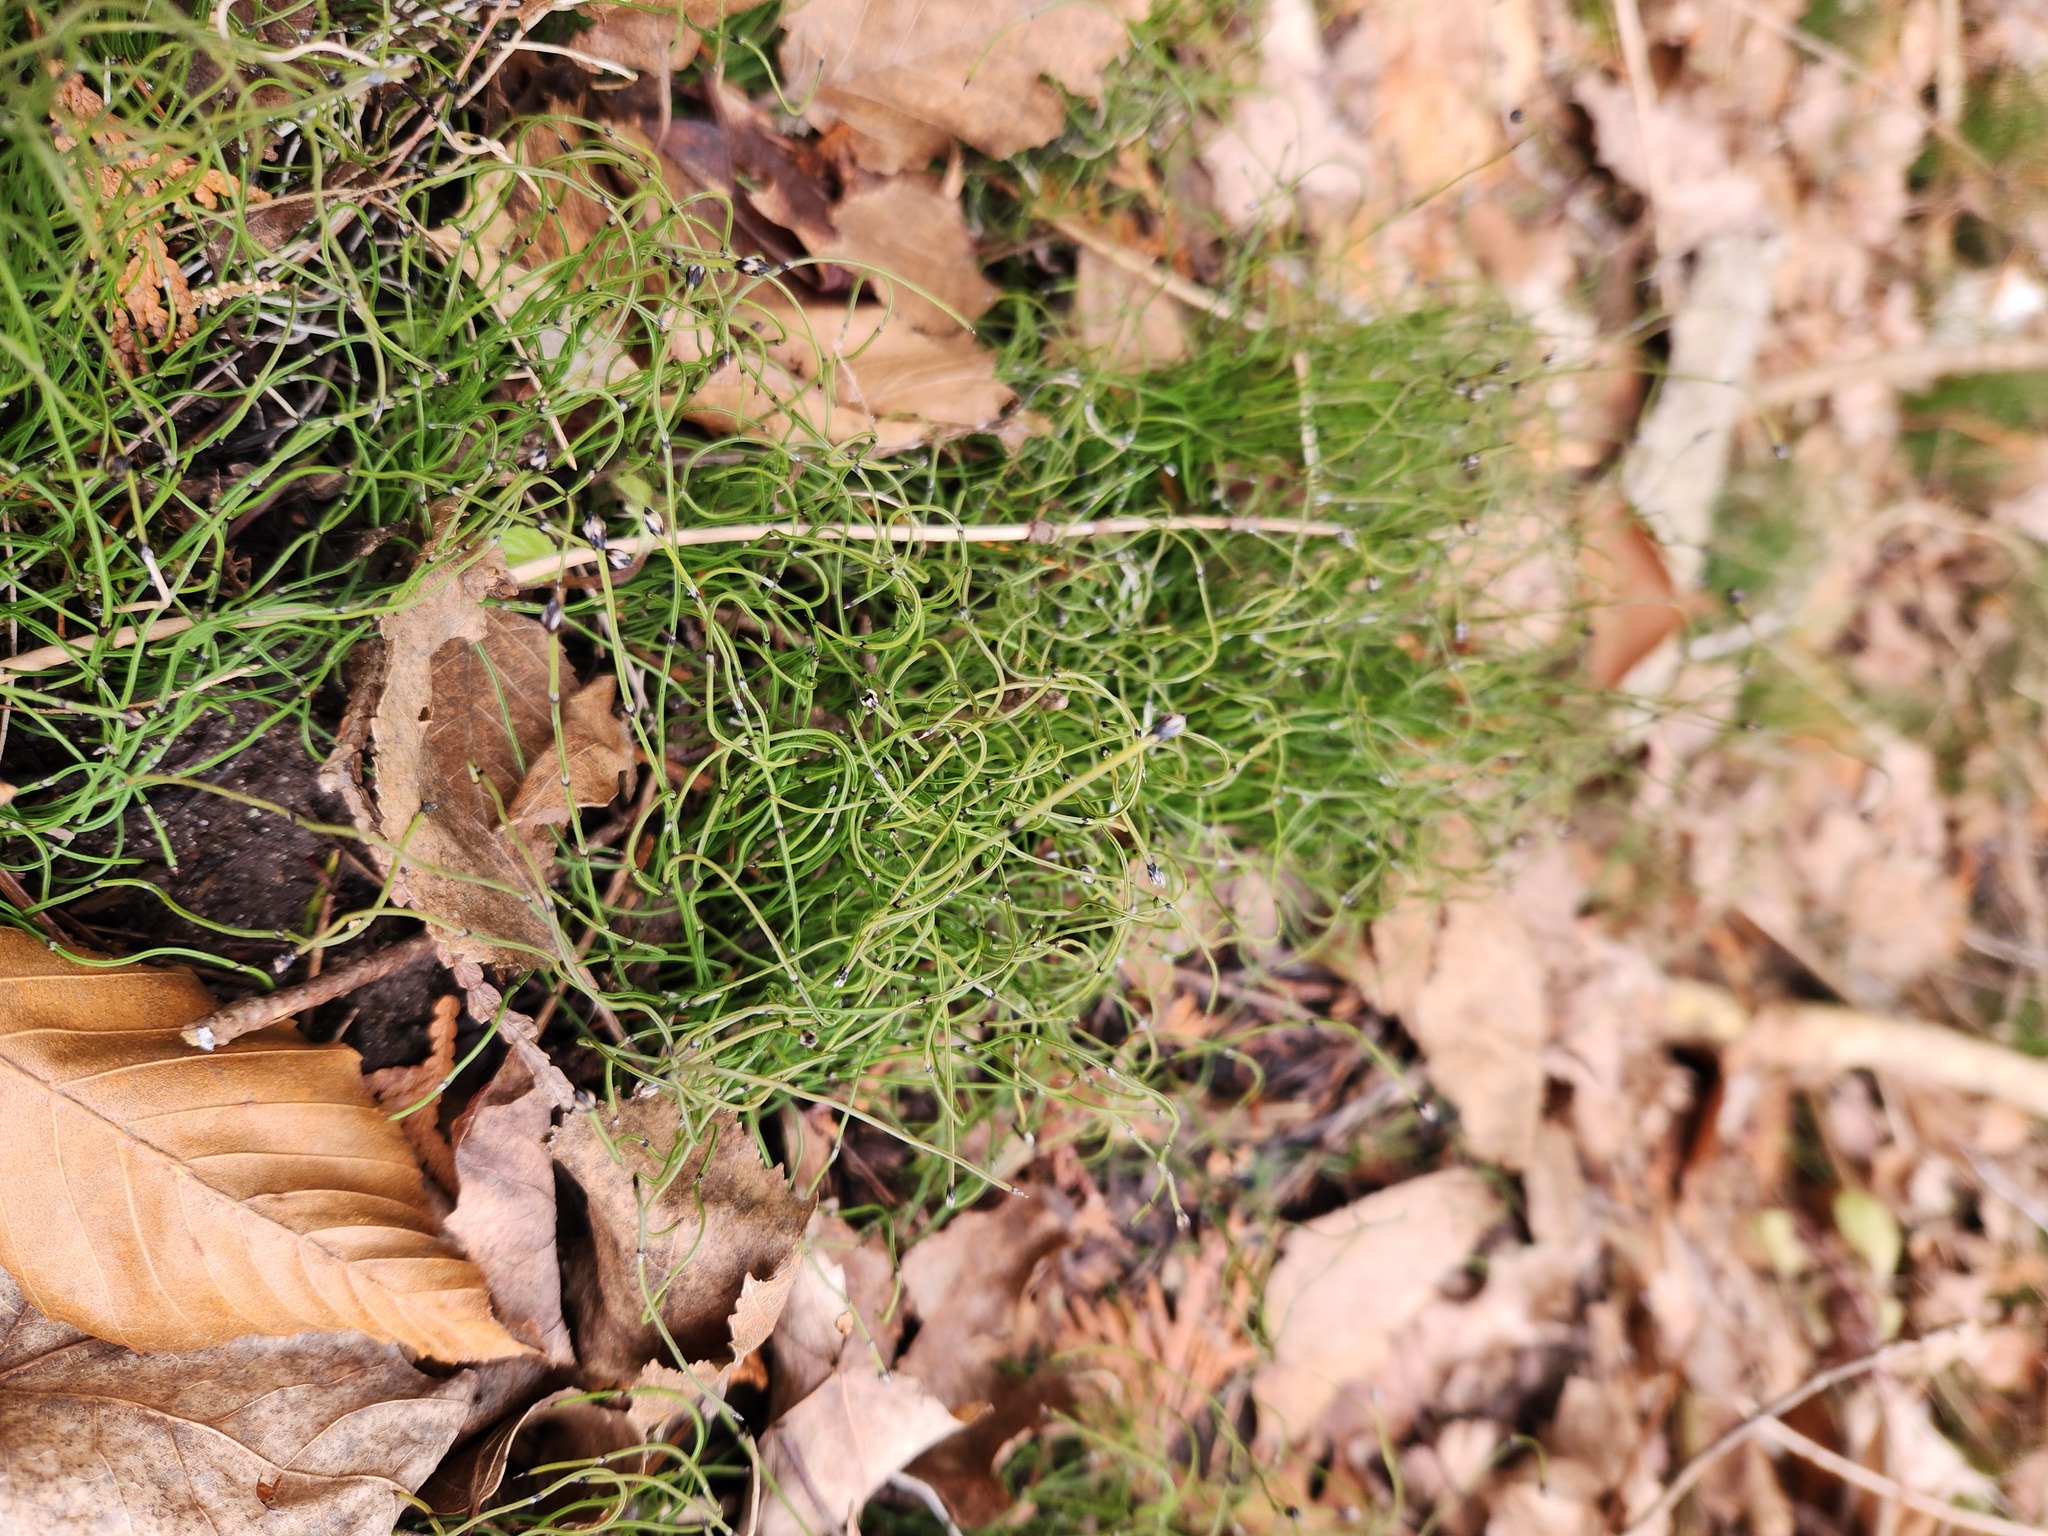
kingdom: Plantae
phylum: Tracheophyta
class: Polypodiopsida
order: Equisetales
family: Equisetaceae
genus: Equisetum
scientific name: Equisetum scirpoides
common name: Delicate horsetail
